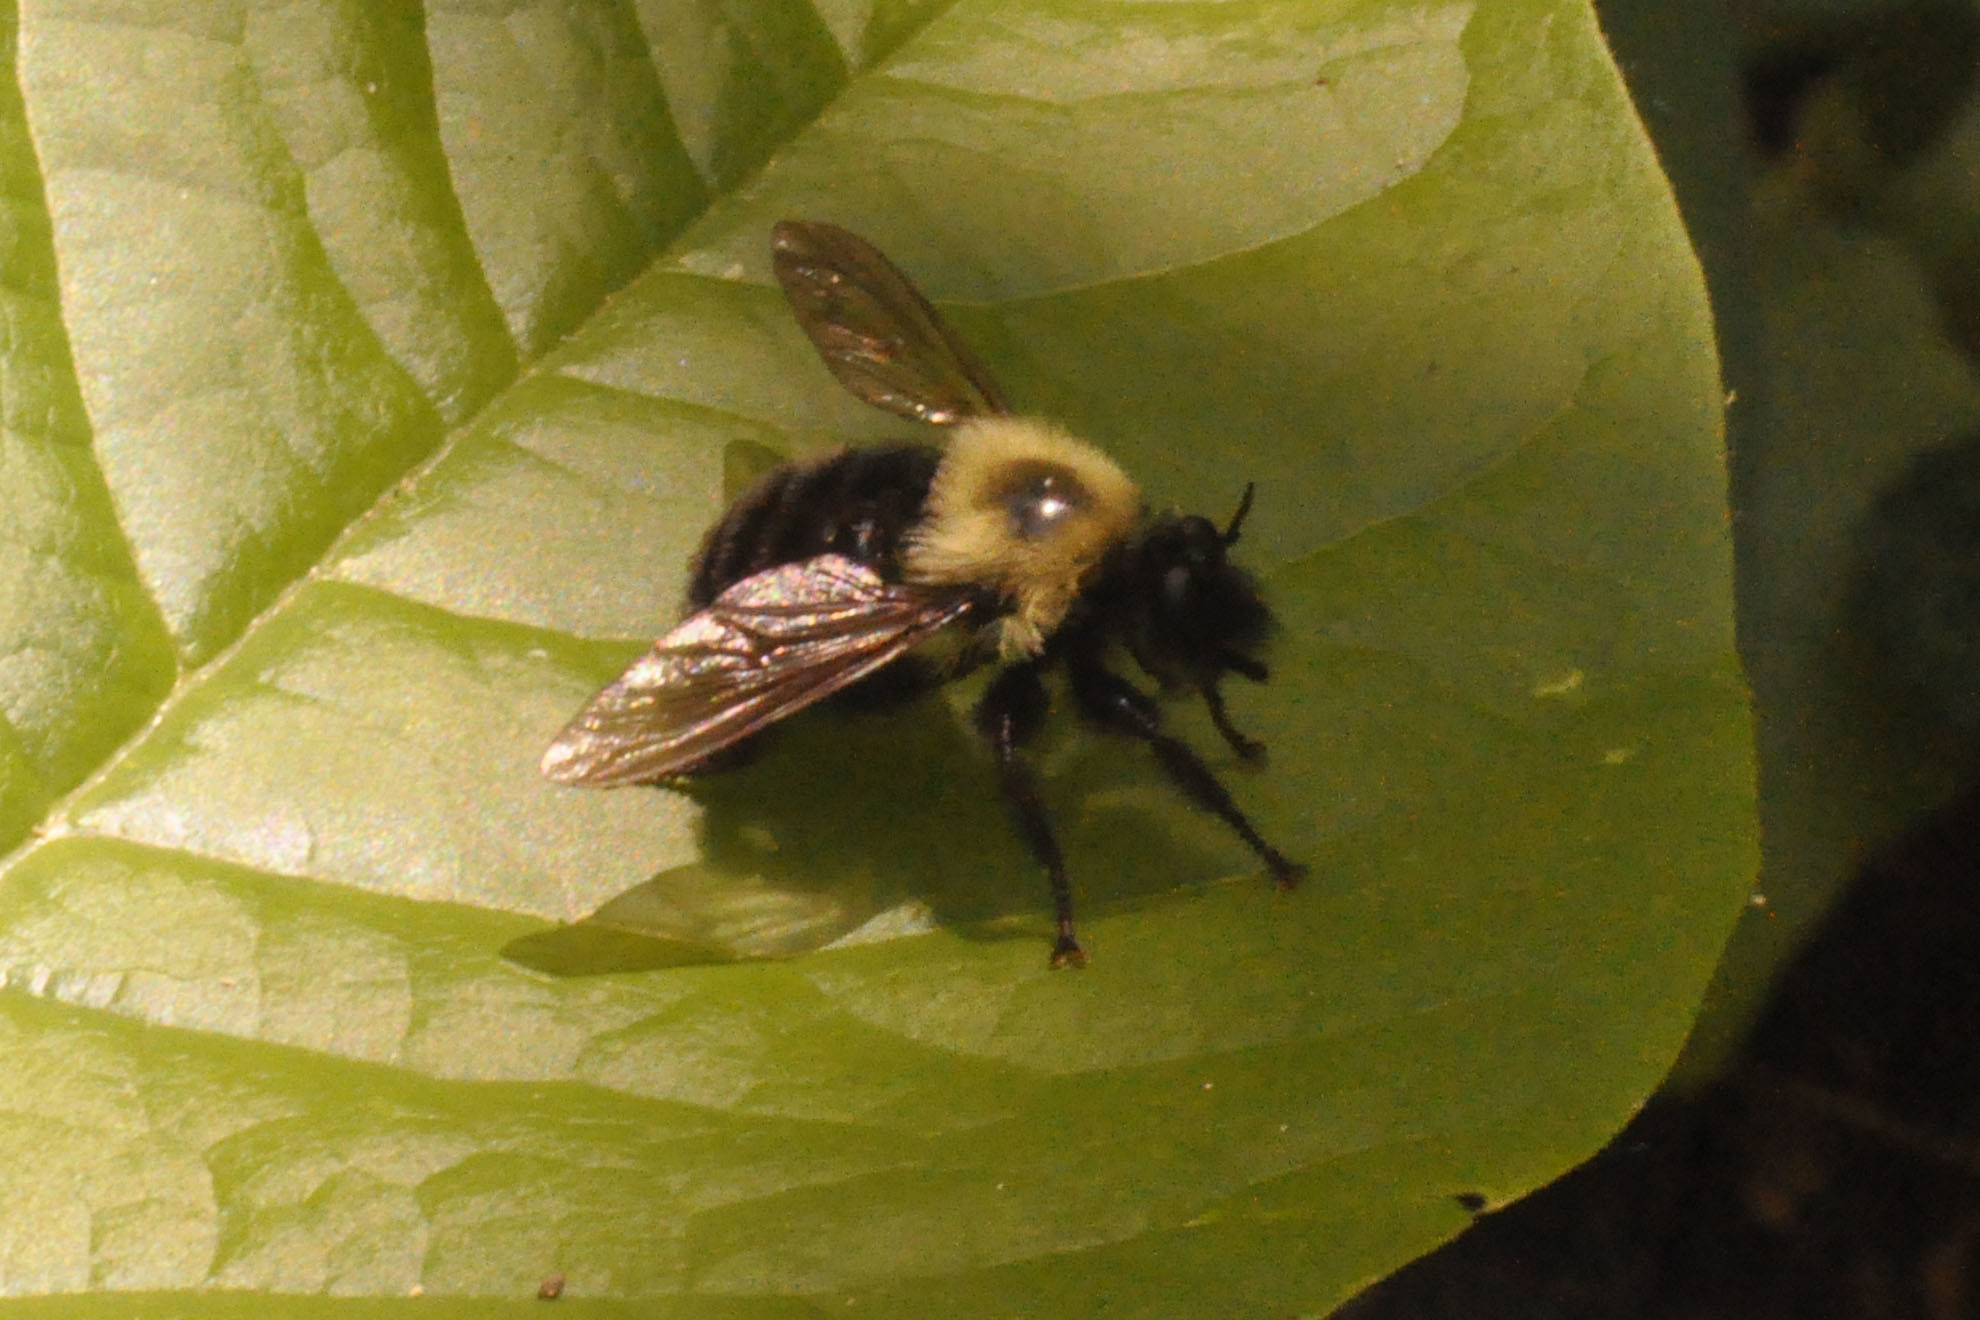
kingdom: Animalia
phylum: Arthropoda
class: Insecta
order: Diptera
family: Asilidae
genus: Laphria
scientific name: Laphria thoracica
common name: Bumble bee mimic robber fly
